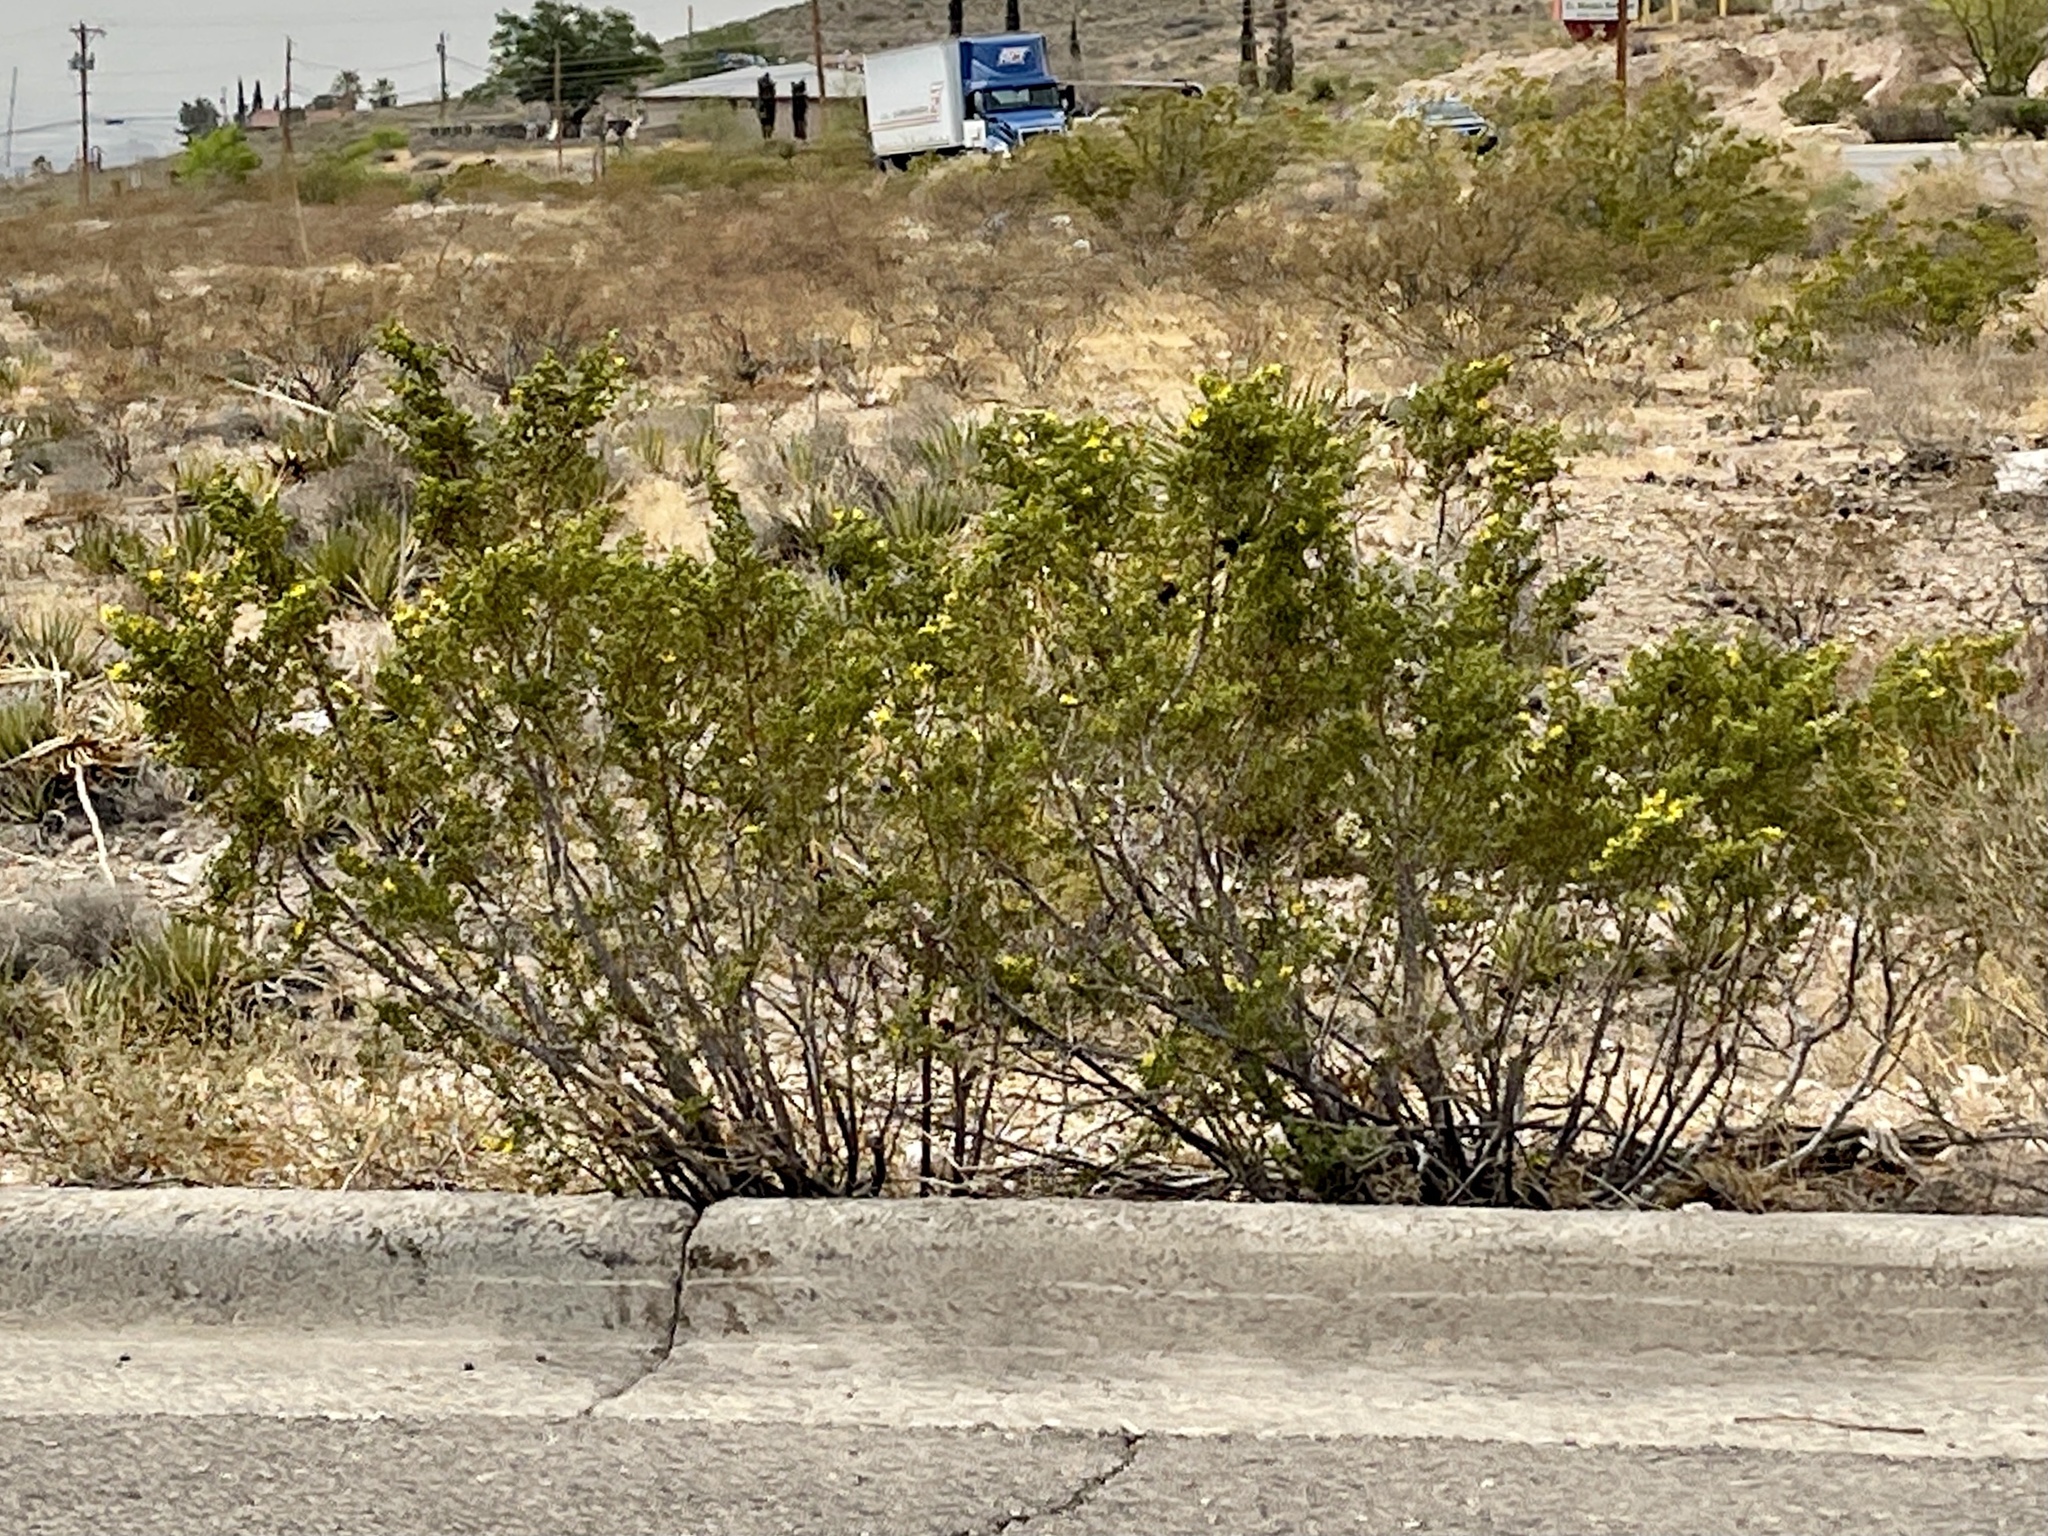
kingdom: Plantae
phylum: Tracheophyta
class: Magnoliopsida
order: Zygophyllales
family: Zygophyllaceae
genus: Larrea
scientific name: Larrea tridentata
